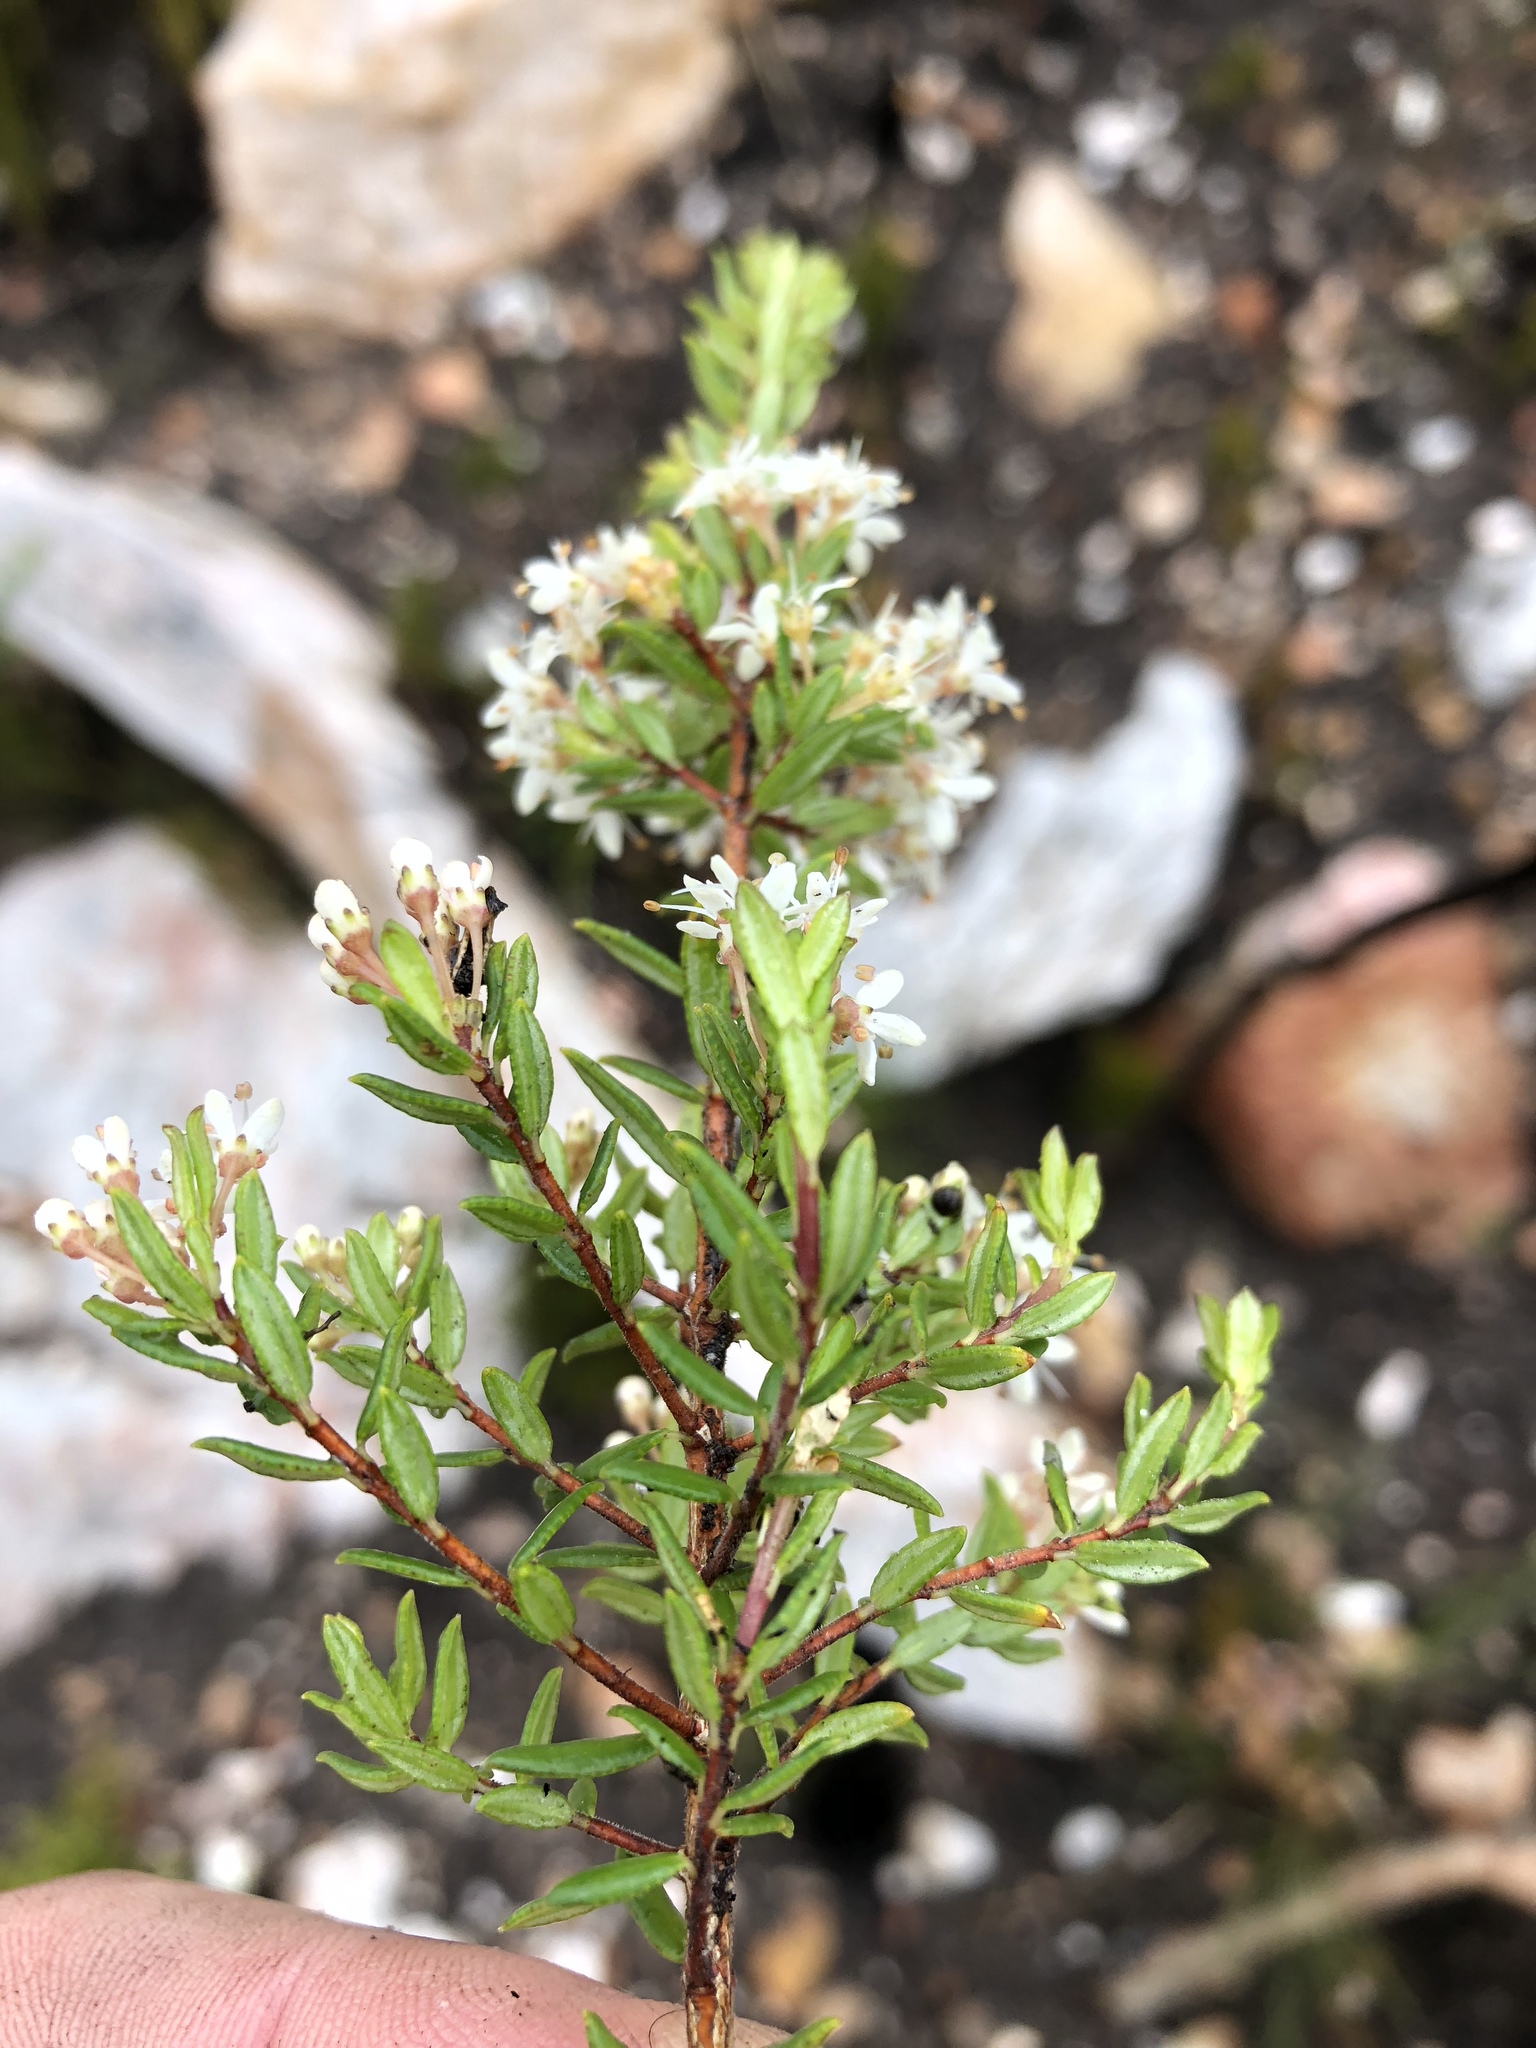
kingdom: Plantae
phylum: Tracheophyta
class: Magnoliopsida
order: Sapindales
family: Rutaceae
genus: Agathosma
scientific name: Agathosma mundtii
